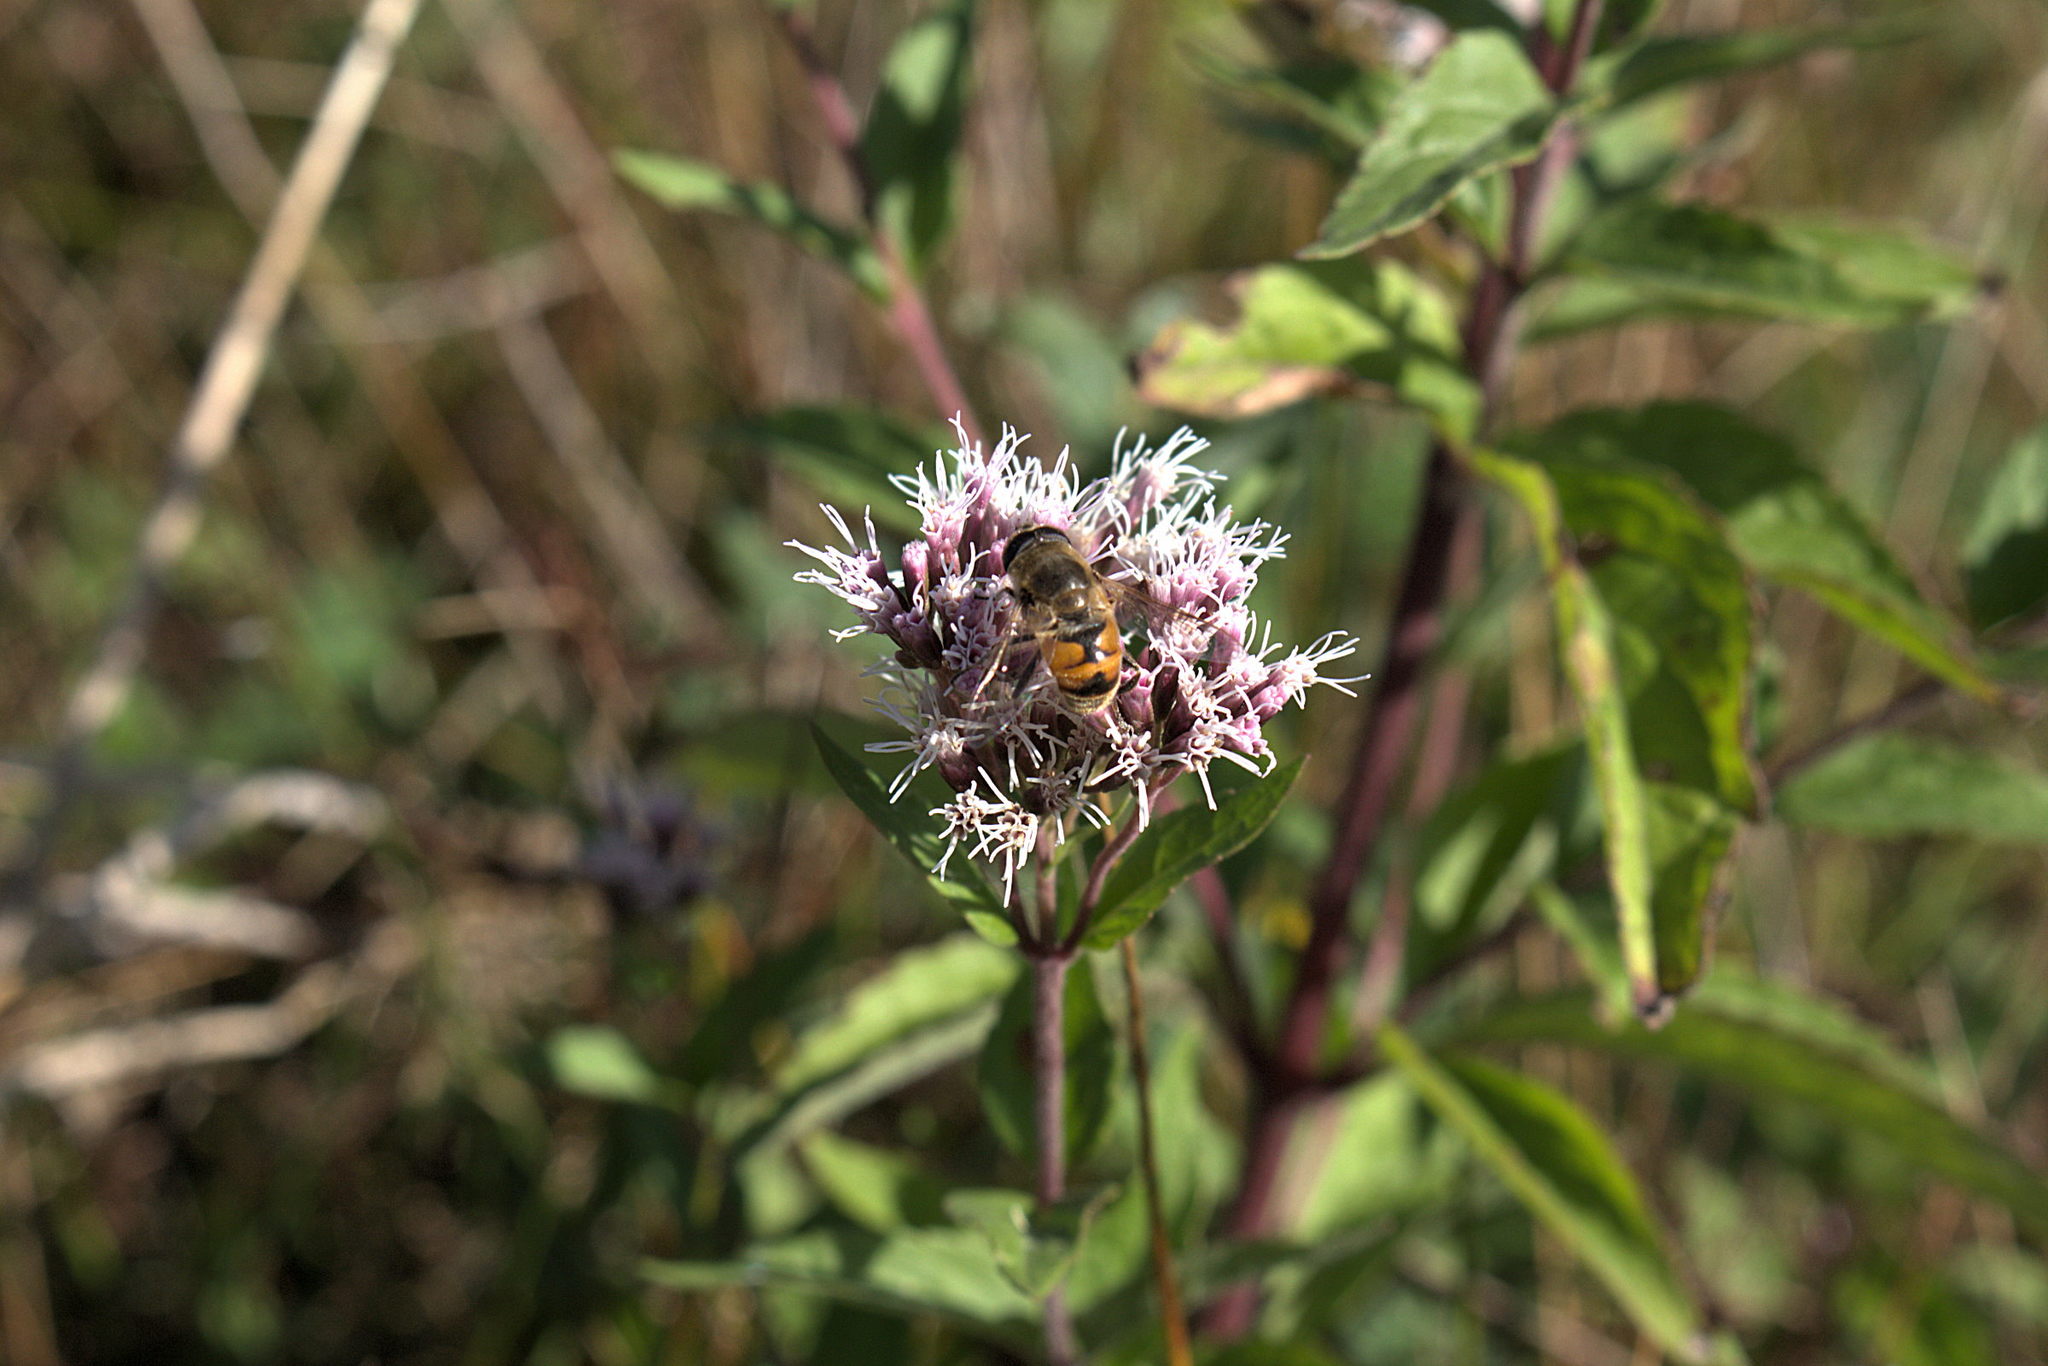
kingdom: Animalia
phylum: Arthropoda
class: Insecta
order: Diptera
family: Syrphidae
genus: Eristalis
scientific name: Eristalis tenax
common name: Drone fly
